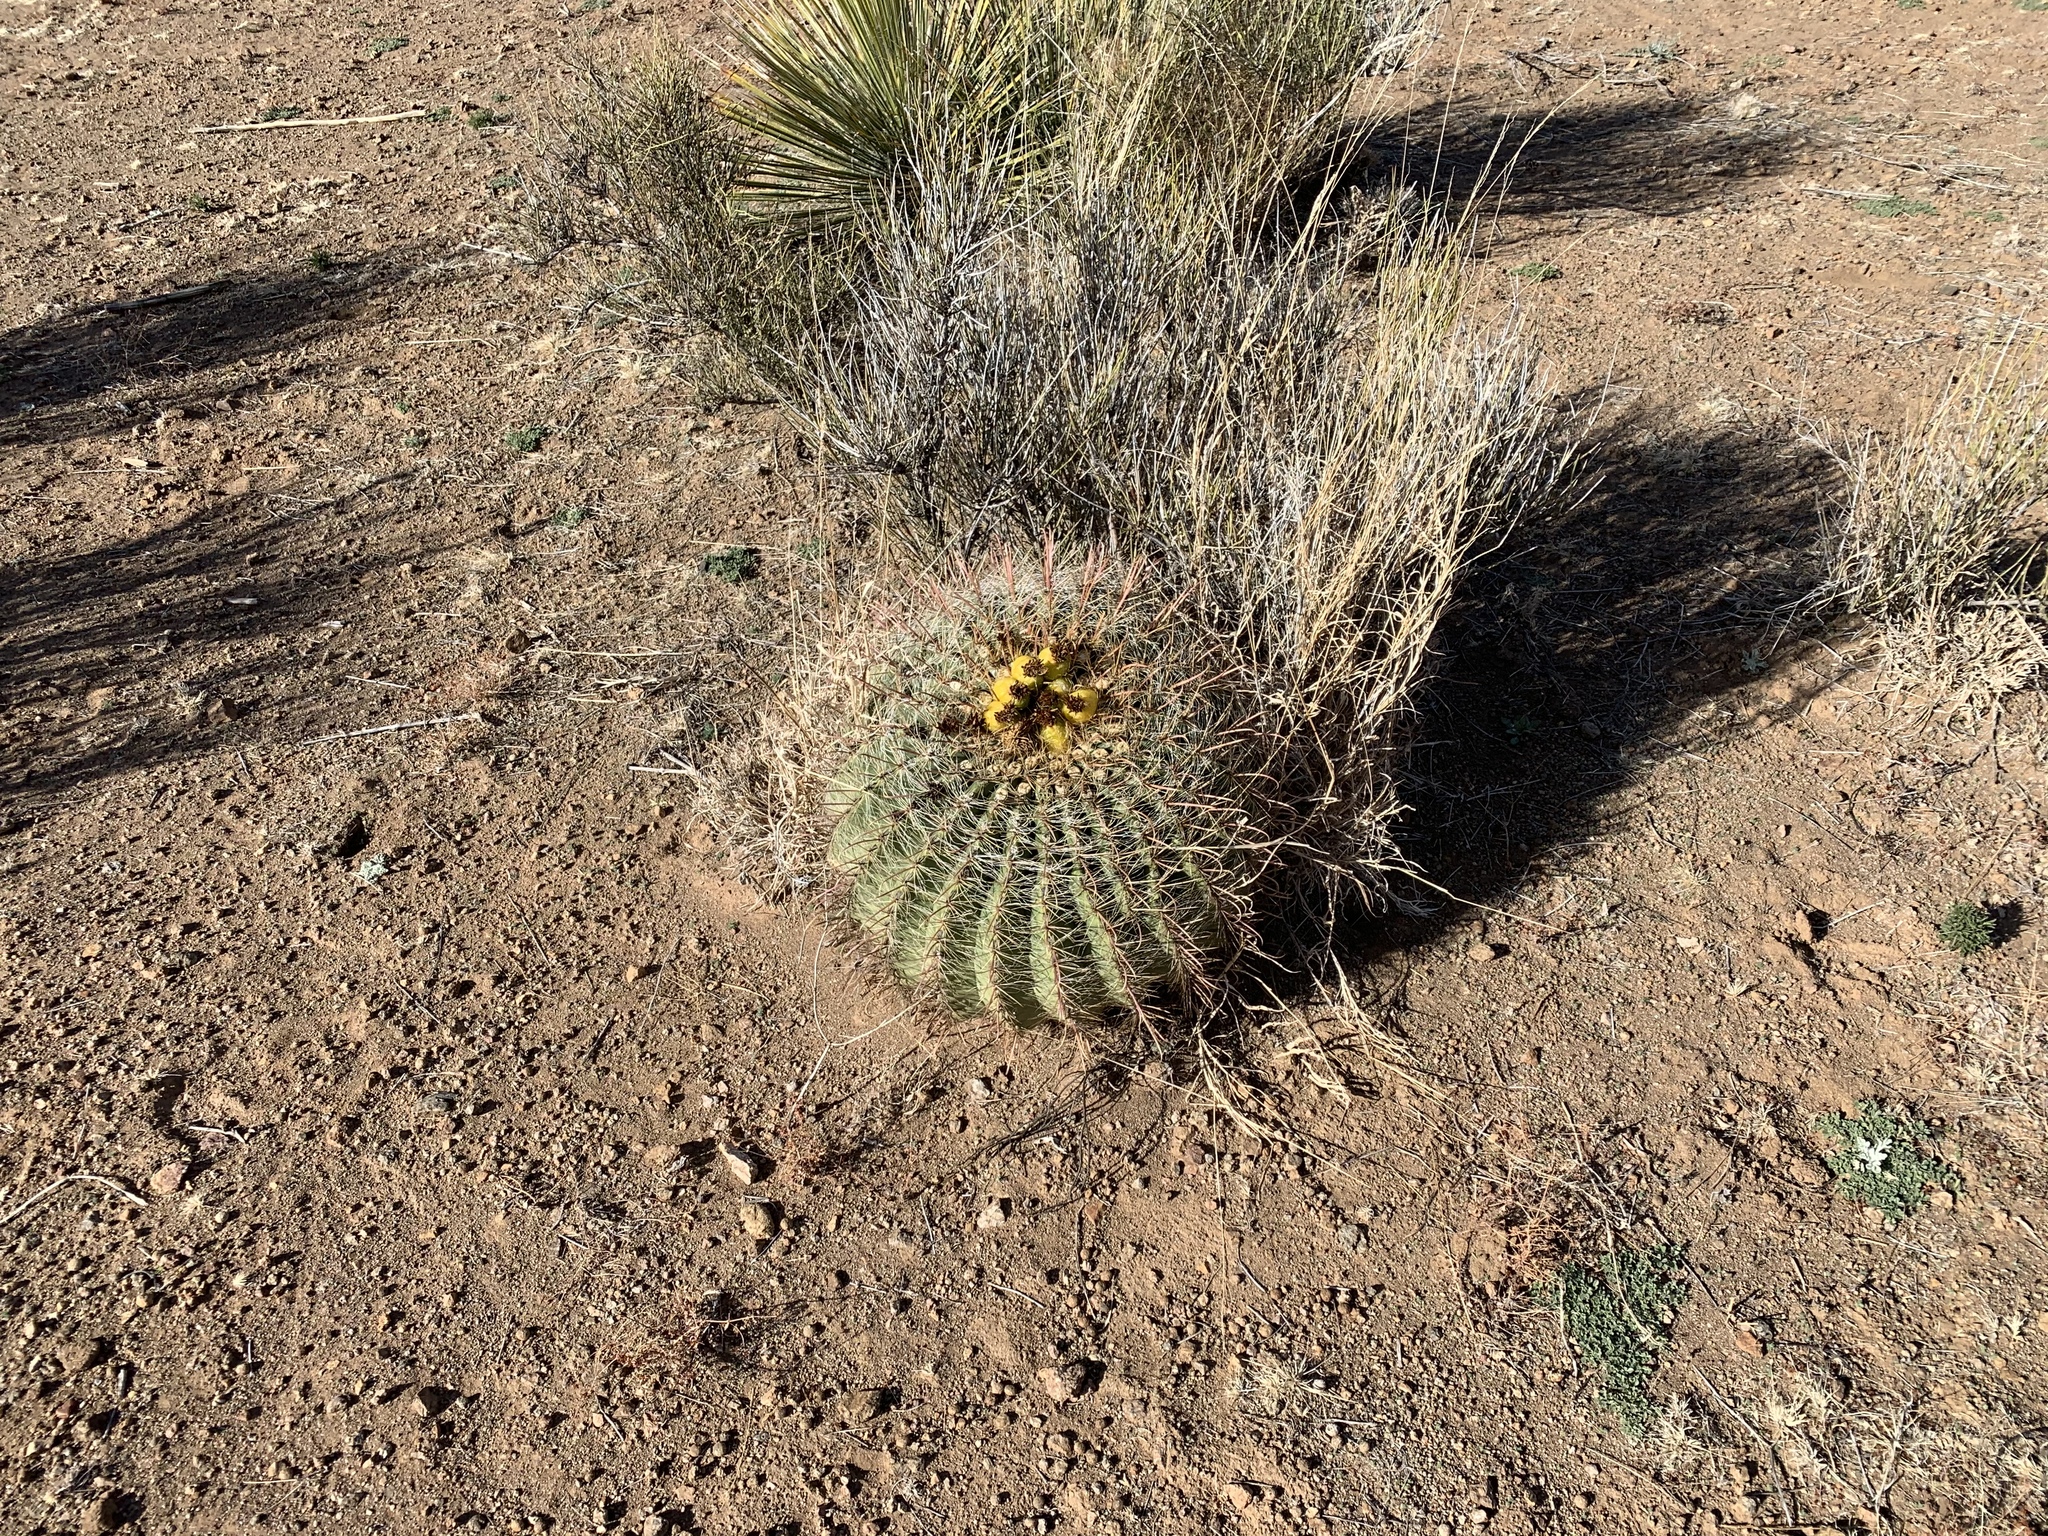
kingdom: Plantae
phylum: Tracheophyta
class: Magnoliopsida
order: Caryophyllales
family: Cactaceae
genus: Ferocactus
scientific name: Ferocactus wislizeni
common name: Candy barrel cactus
